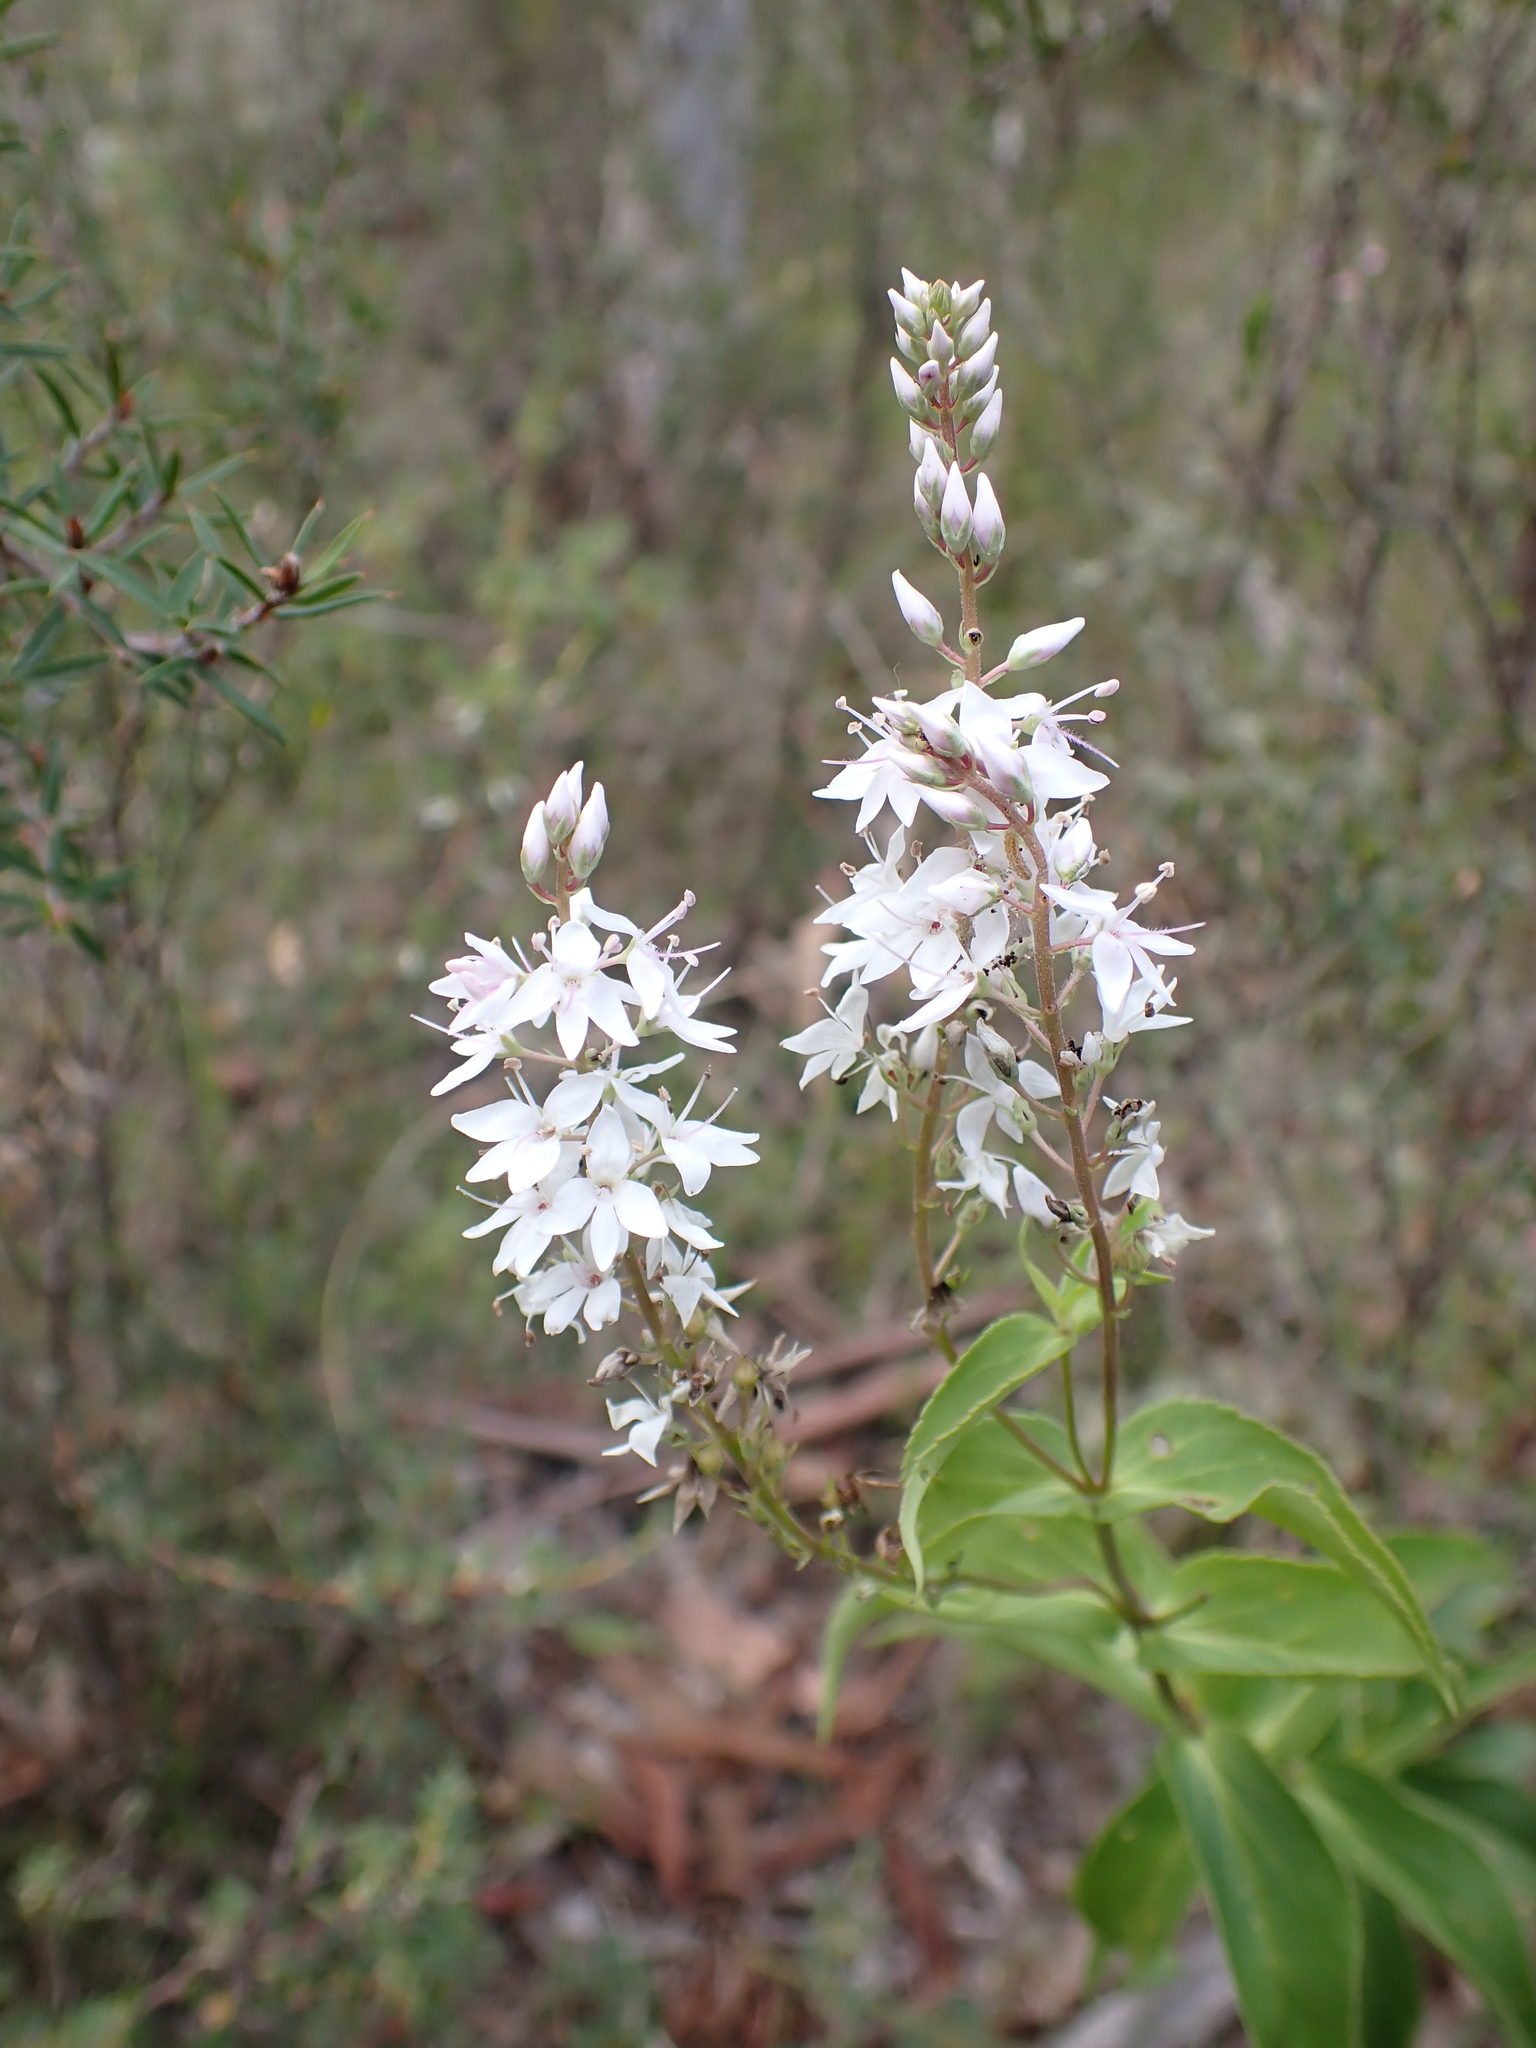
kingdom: Plantae
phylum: Tracheophyta
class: Magnoliopsida
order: Lamiales
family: Plantaginaceae
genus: Veronica
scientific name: Veronica derwentiana
